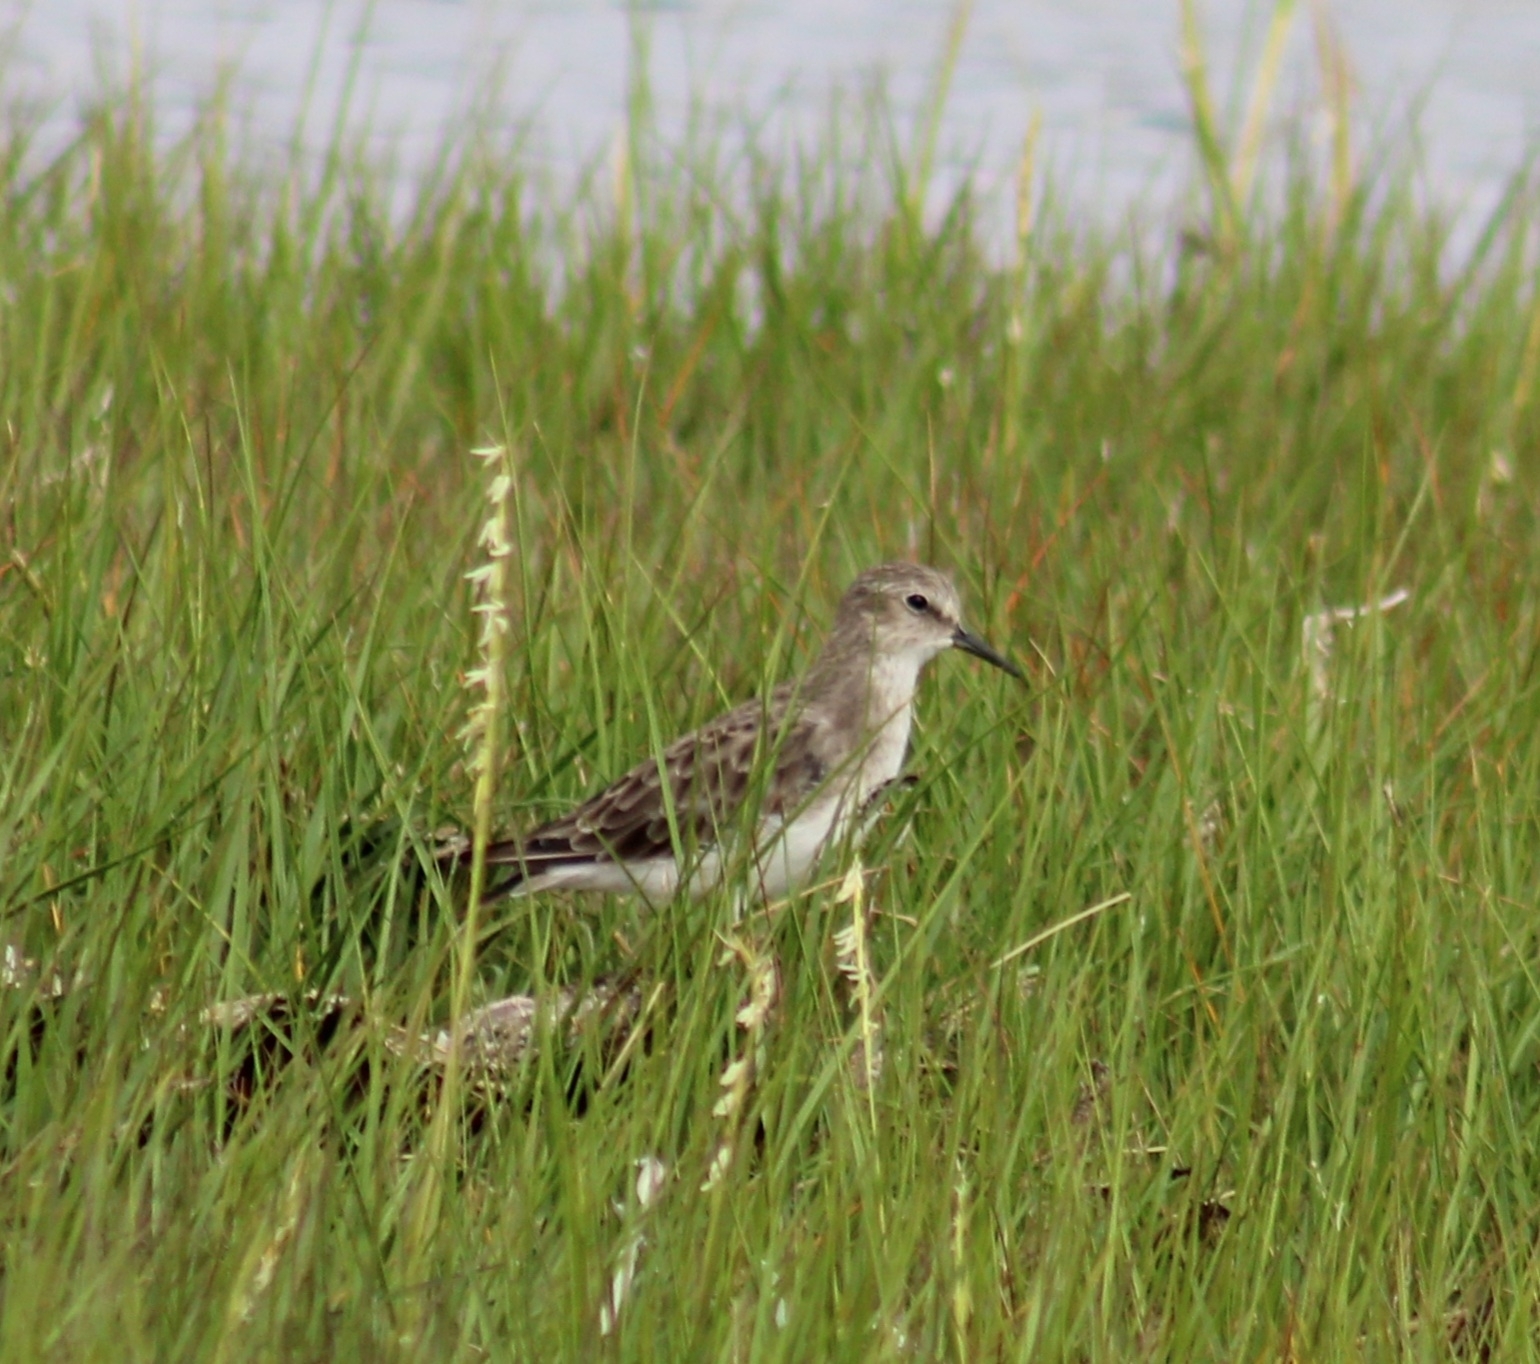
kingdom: Animalia
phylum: Chordata
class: Aves
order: Charadriiformes
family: Scolopacidae
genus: Calidris
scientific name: Calidris pusilla
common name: Semipalmated sandpiper
